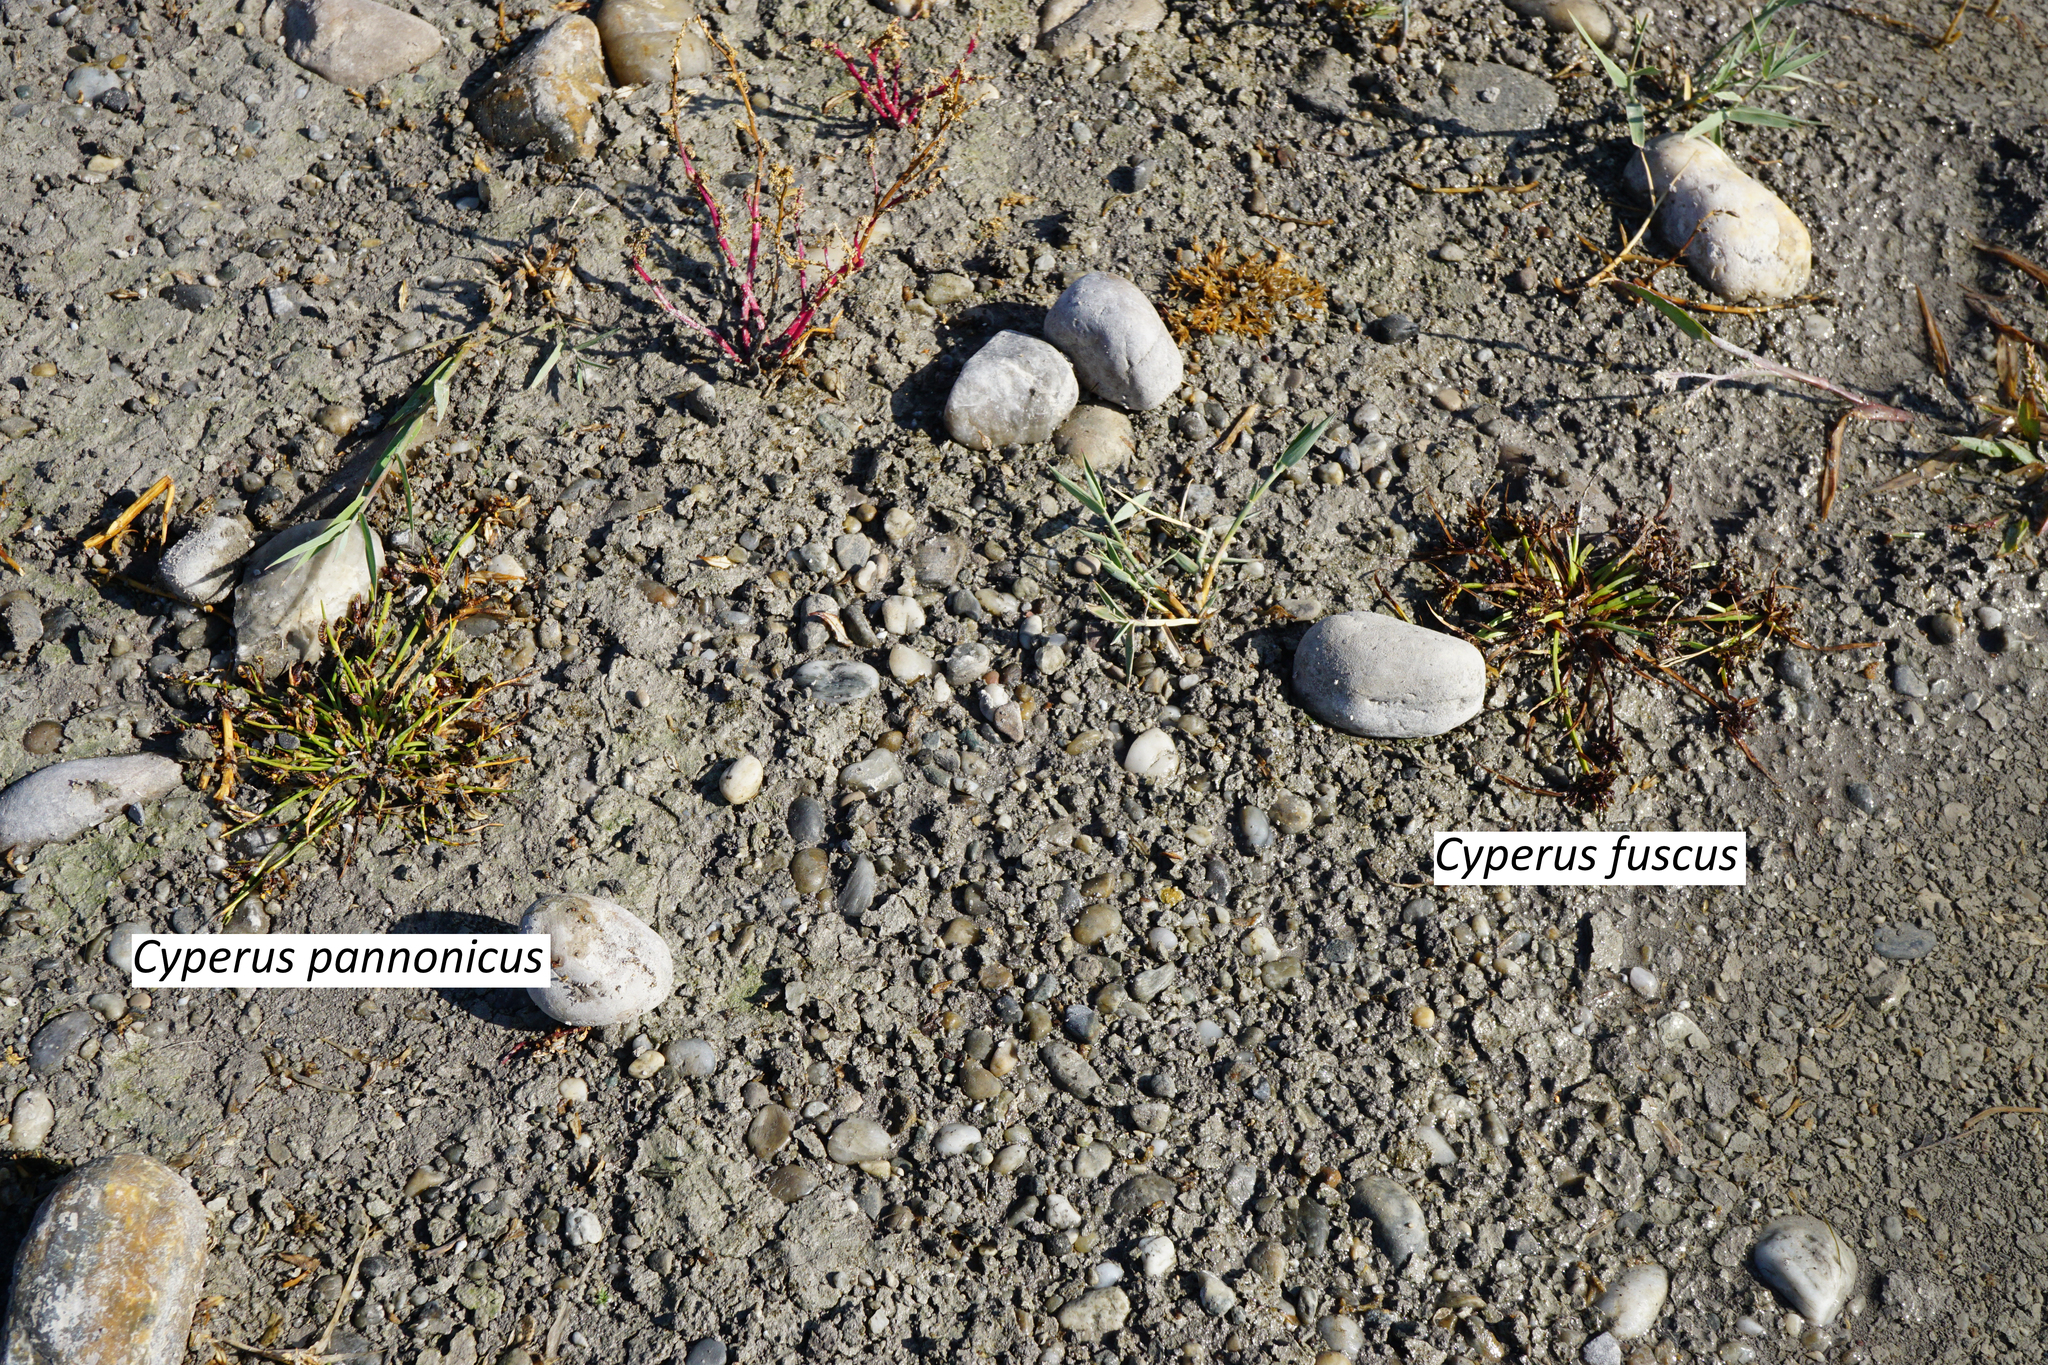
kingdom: Plantae
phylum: Tracheophyta
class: Liliopsida
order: Poales
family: Cyperaceae
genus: Cyperus
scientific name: Cyperus pannonicus
